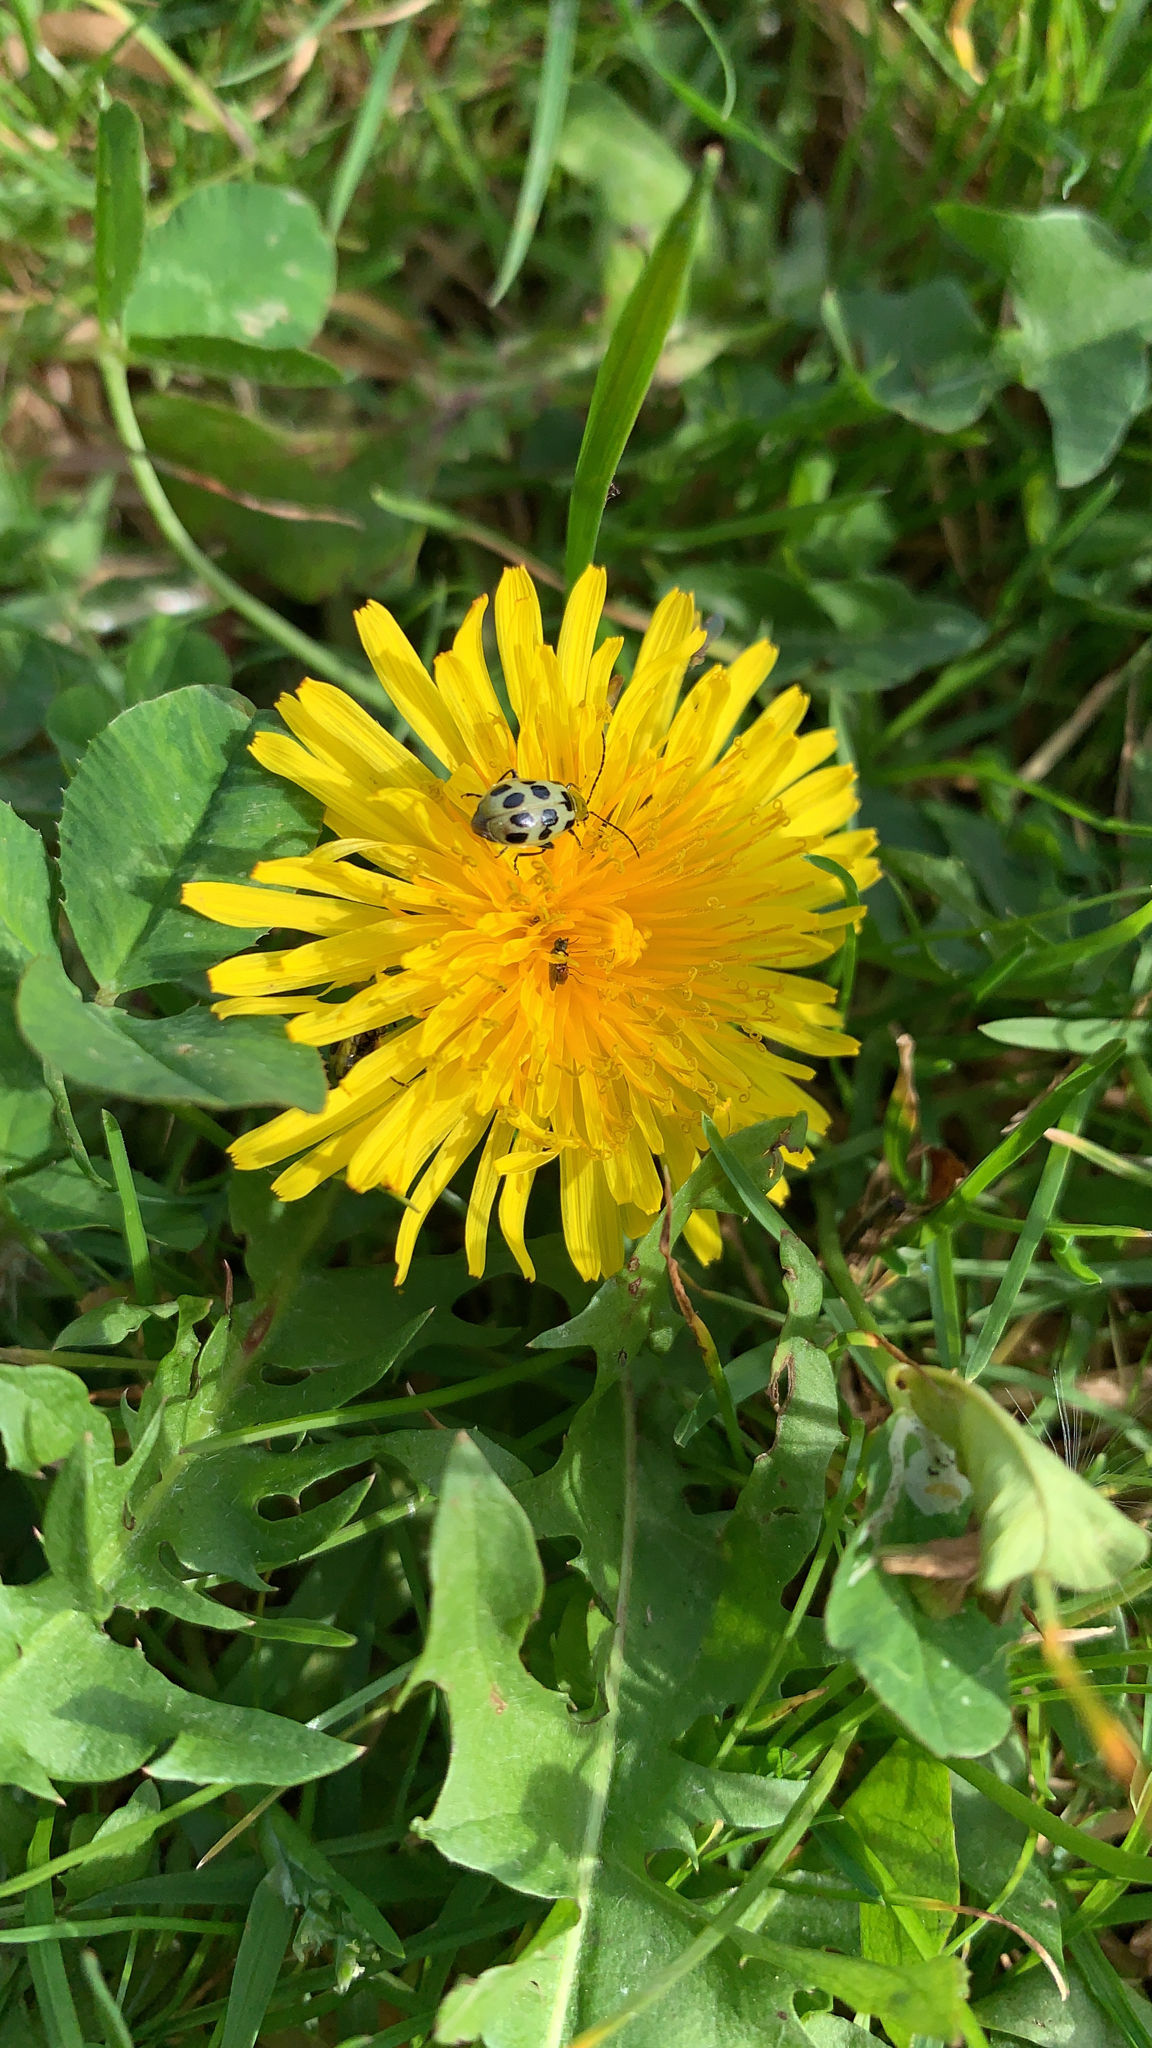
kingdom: Animalia
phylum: Arthropoda
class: Insecta
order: Coleoptera
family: Chrysomelidae
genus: Diabrotica
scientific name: Diabrotica undecimpunctata
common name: Spotted cucumber beetle
